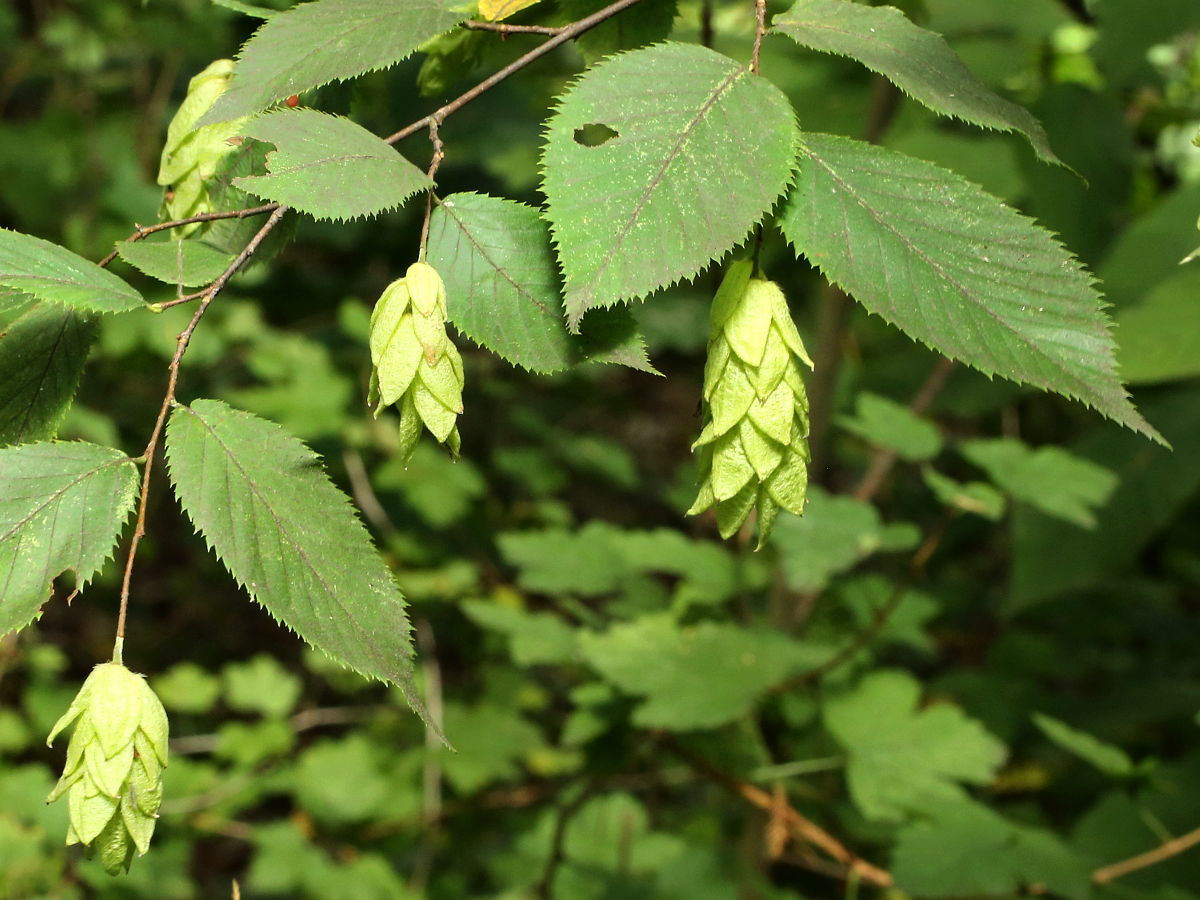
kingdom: Plantae
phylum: Tracheophyta
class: Magnoliopsida
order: Fagales
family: Betulaceae
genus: Ostrya
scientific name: Ostrya virginiana
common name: Ironwood
